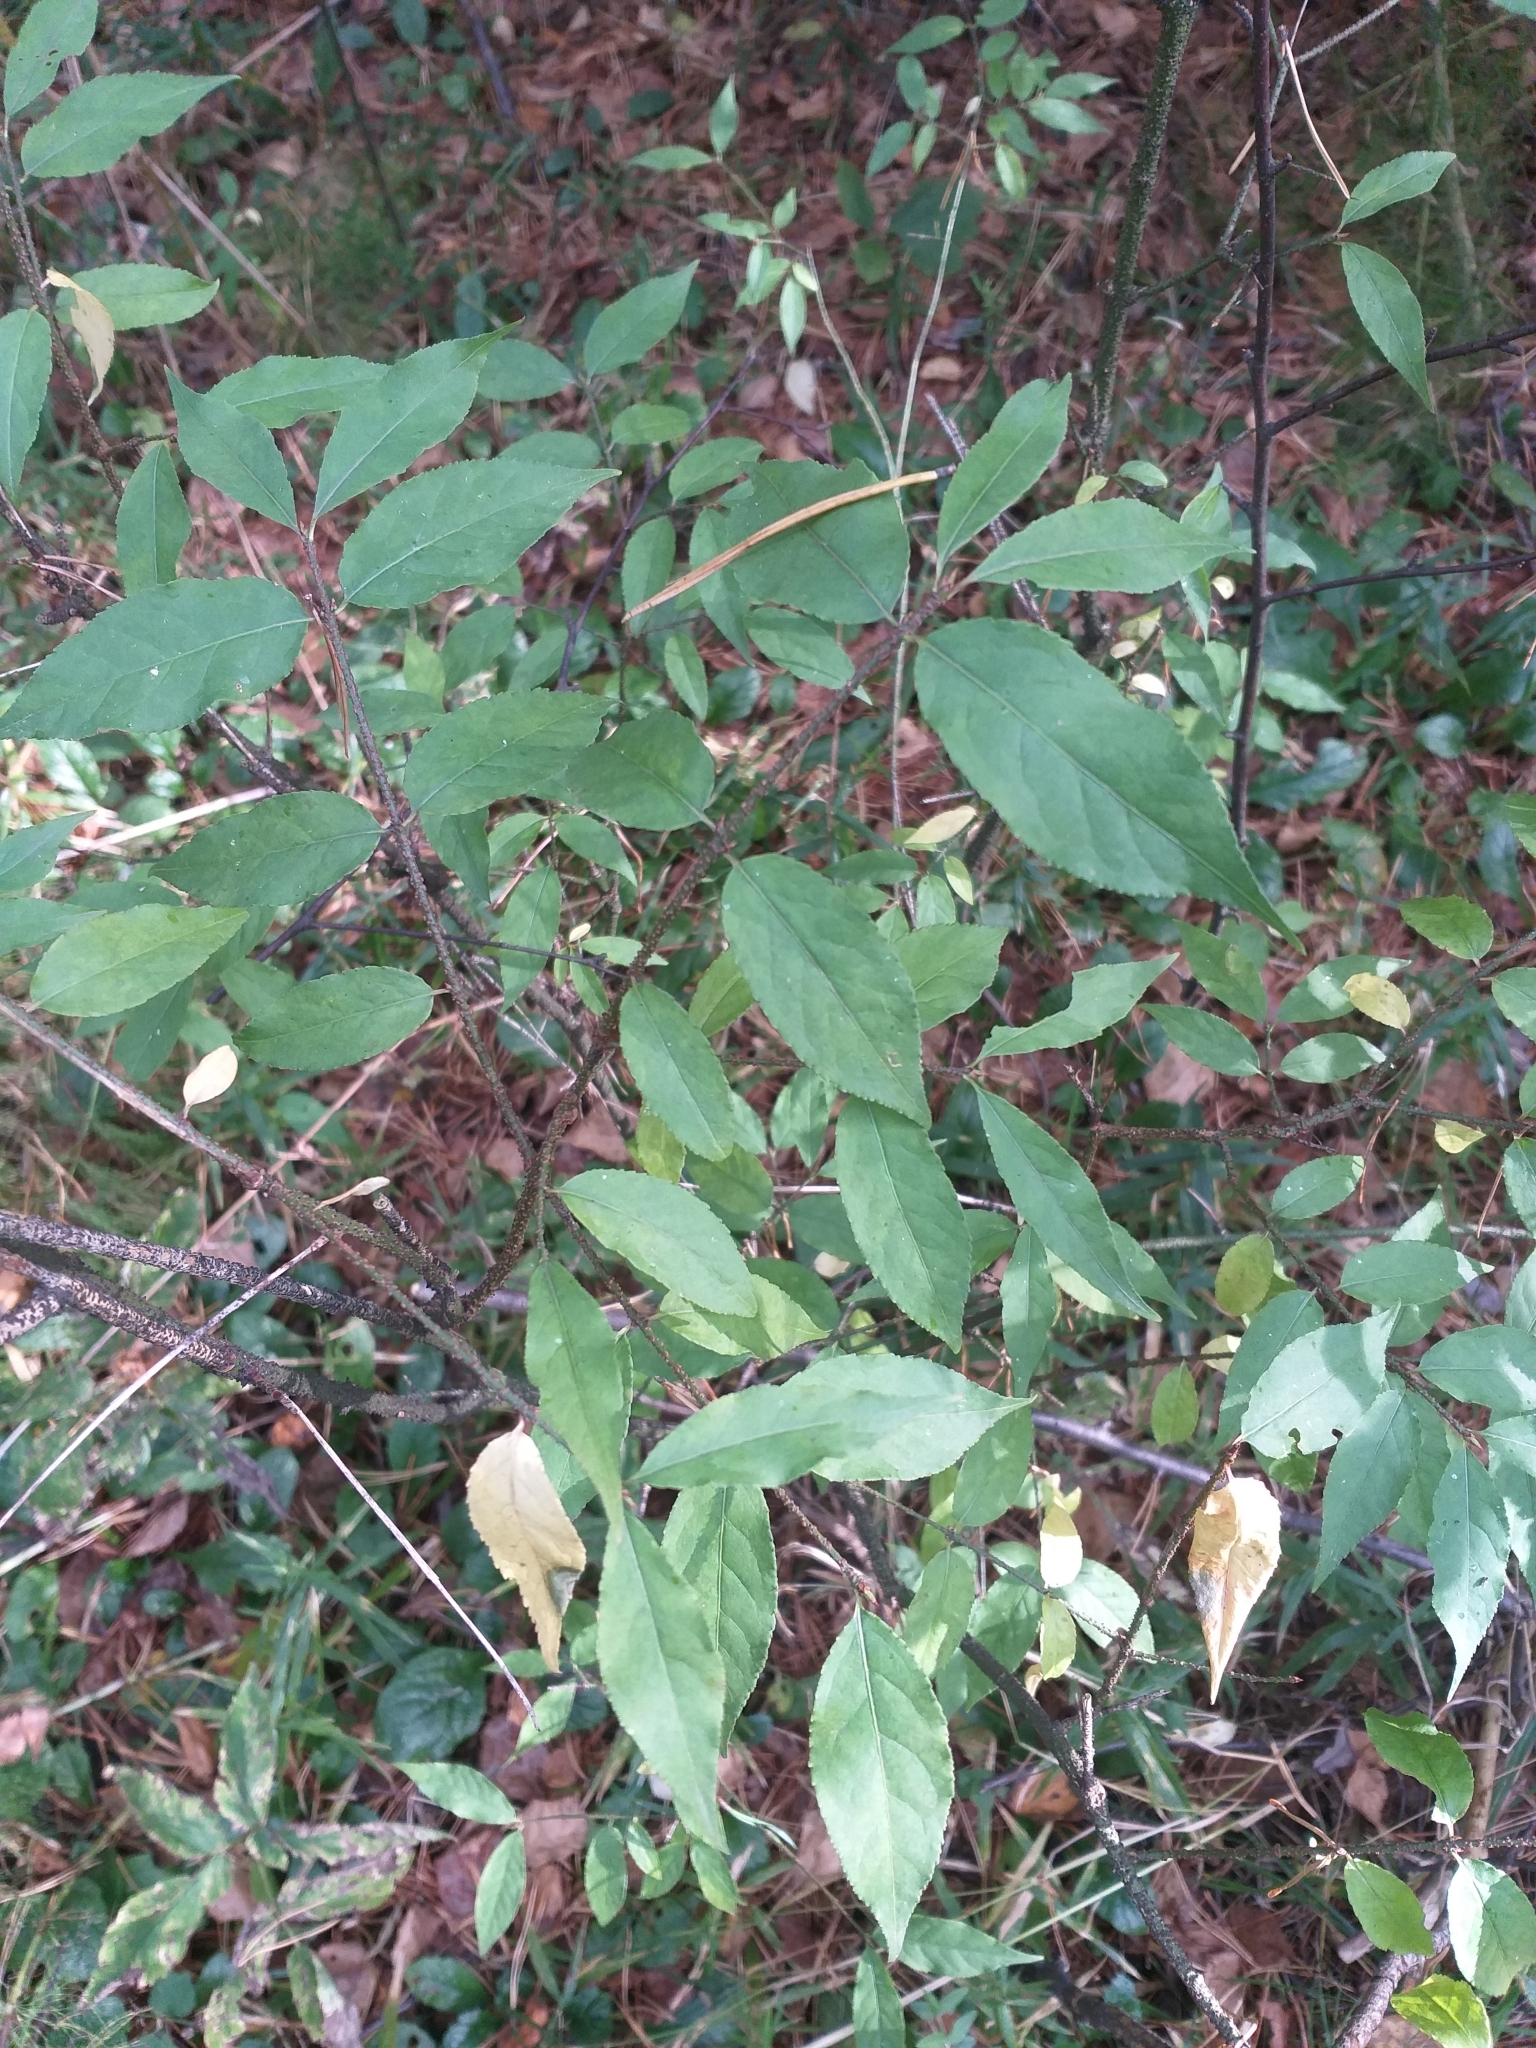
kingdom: Plantae
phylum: Tracheophyta
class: Magnoliopsida
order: Celastrales
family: Celastraceae
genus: Euonymus
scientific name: Euonymus verrucosus
